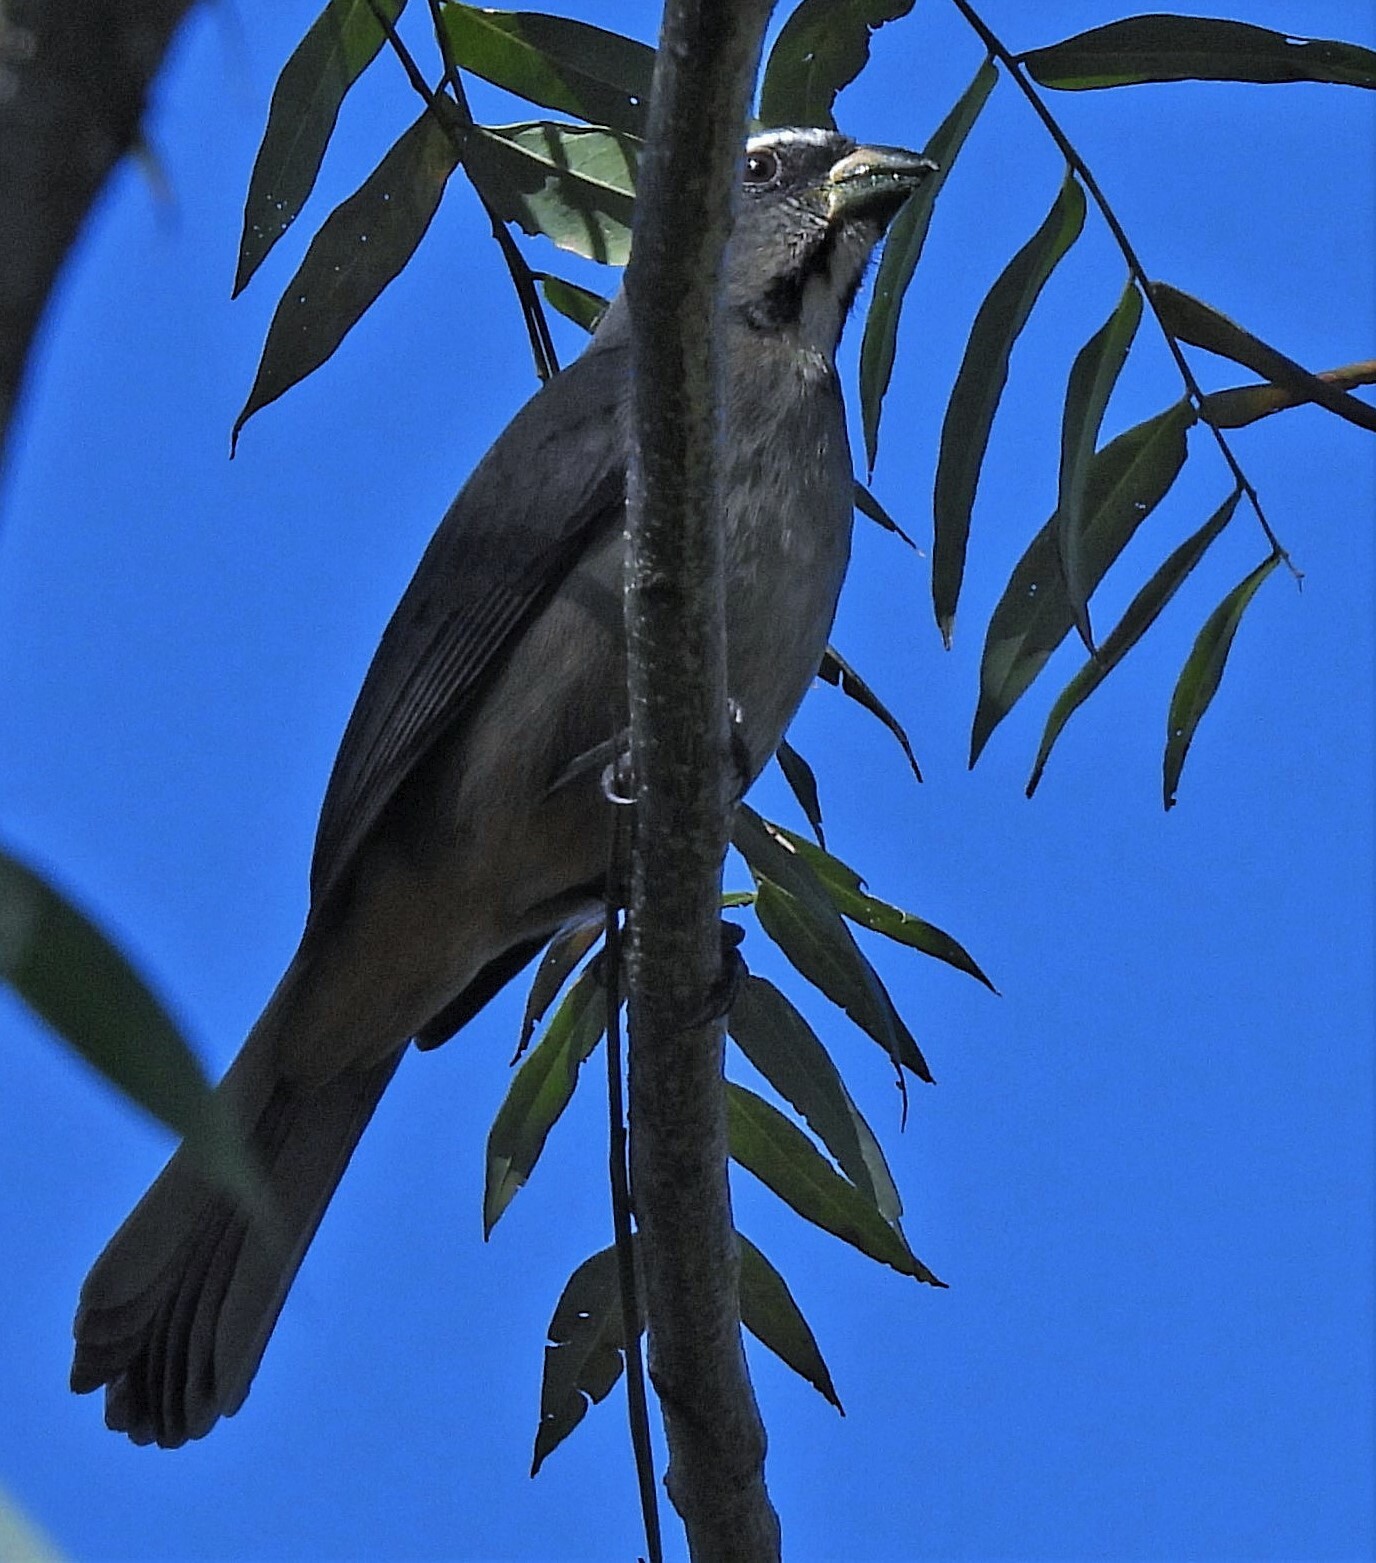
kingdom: Animalia
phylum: Chordata
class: Aves
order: Passeriformes
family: Thraupidae
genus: Saltator
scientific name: Saltator maxillosus
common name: Thick-billed saltator
